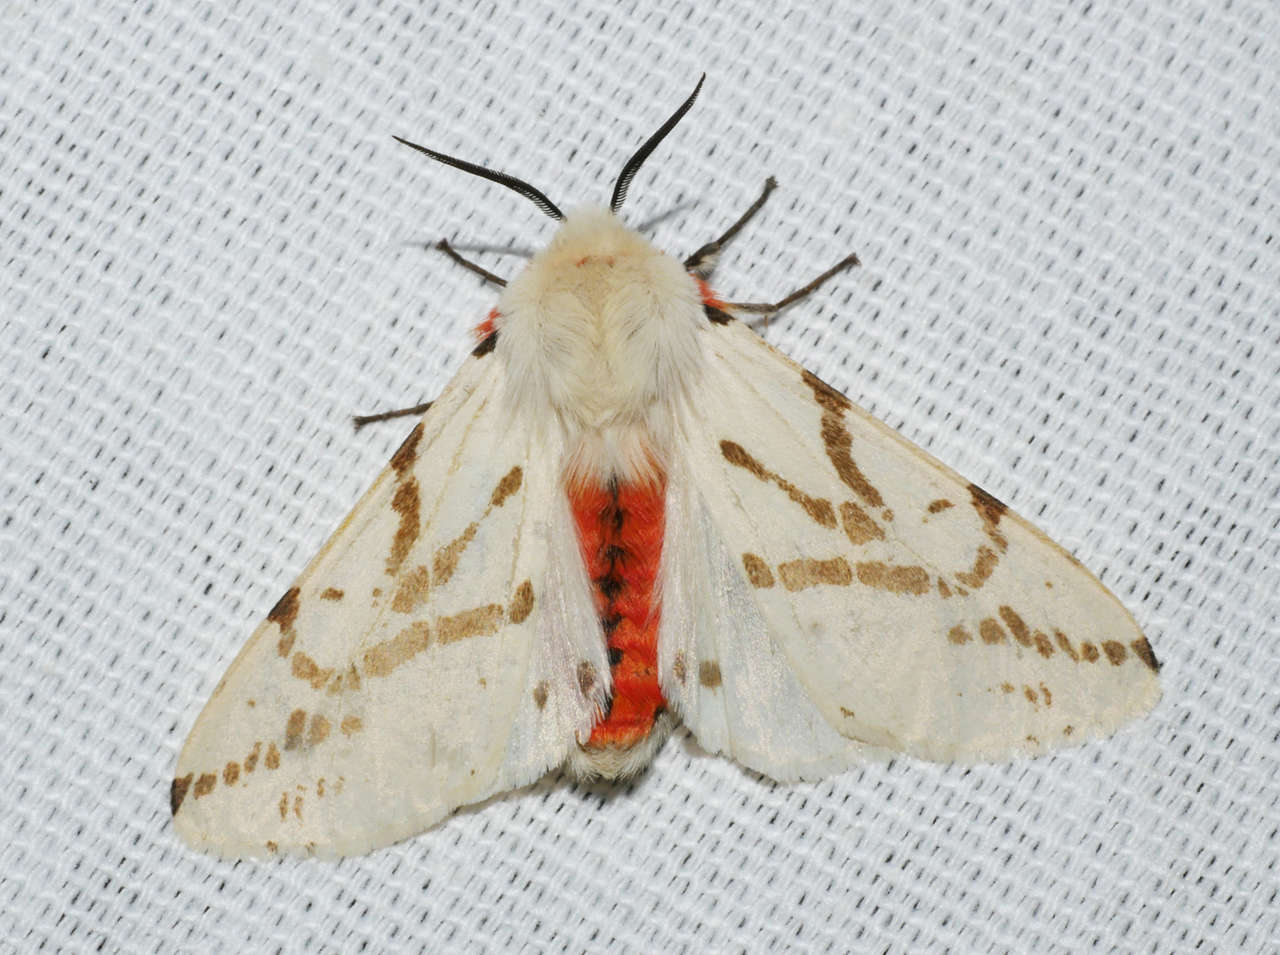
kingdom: Animalia
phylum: Arthropoda
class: Insecta
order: Lepidoptera
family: Erebidae
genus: Ardices
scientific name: Ardices canescens
